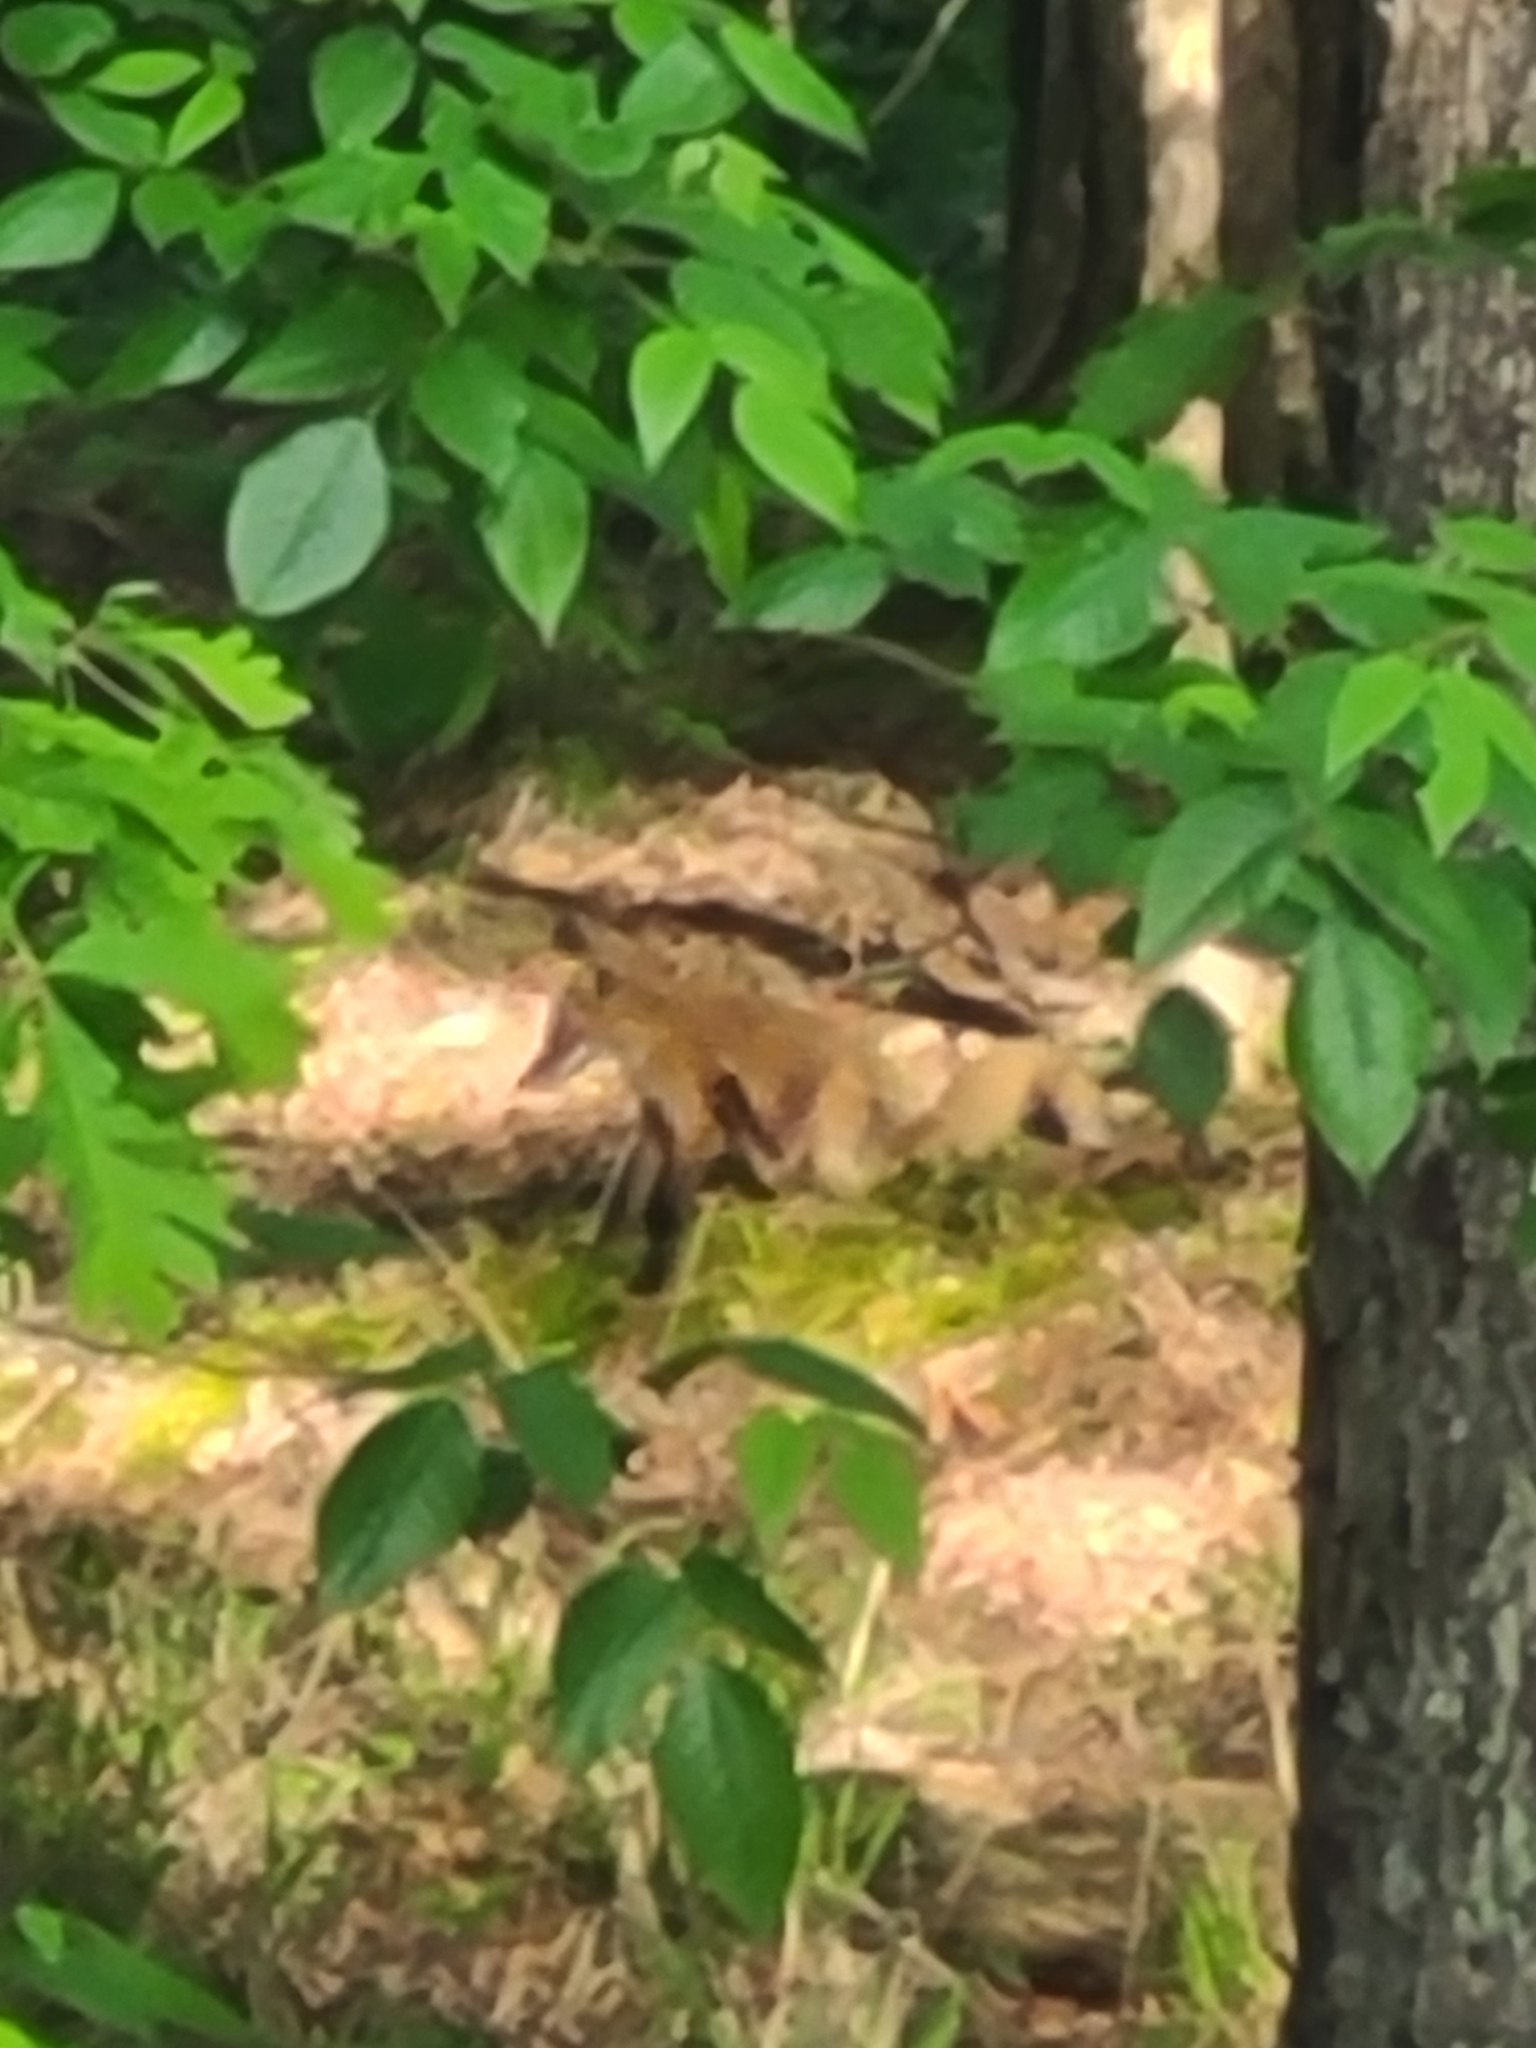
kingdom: Animalia
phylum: Chordata
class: Mammalia
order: Carnivora
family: Canidae
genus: Vulpes
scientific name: Vulpes vulpes
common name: Red fox
